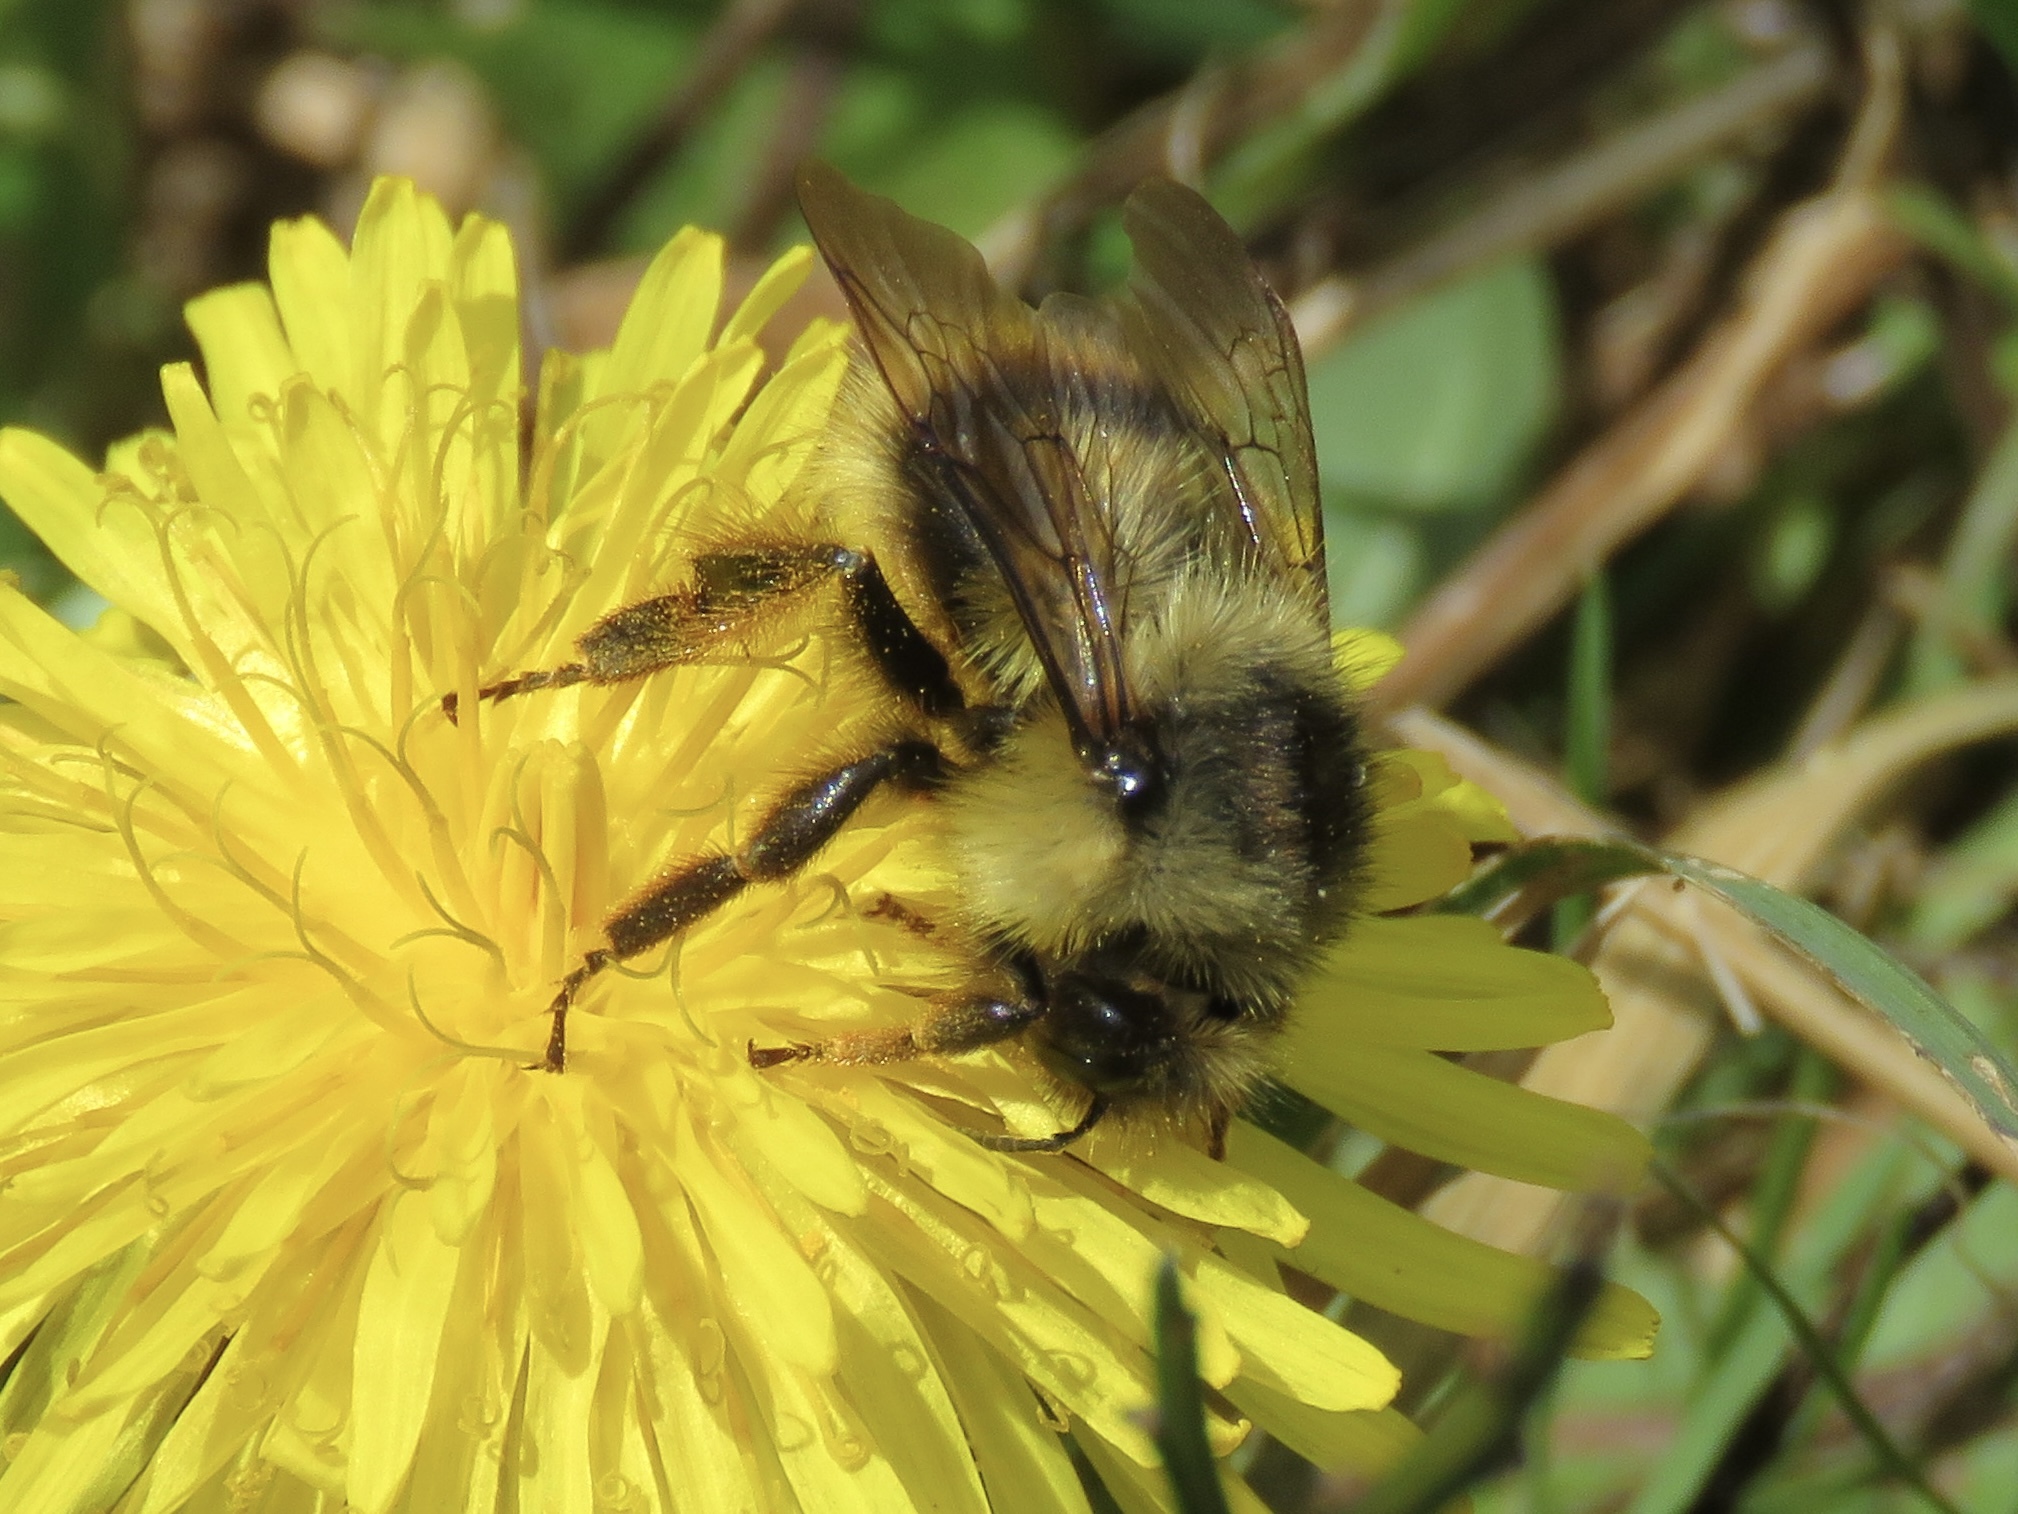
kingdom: Animalia
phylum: Arthropoda
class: Insecta
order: Hymenoptera
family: Apidae
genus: Bombus
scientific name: Bombus mixtus
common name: Fuzzy-horned bumble bee
